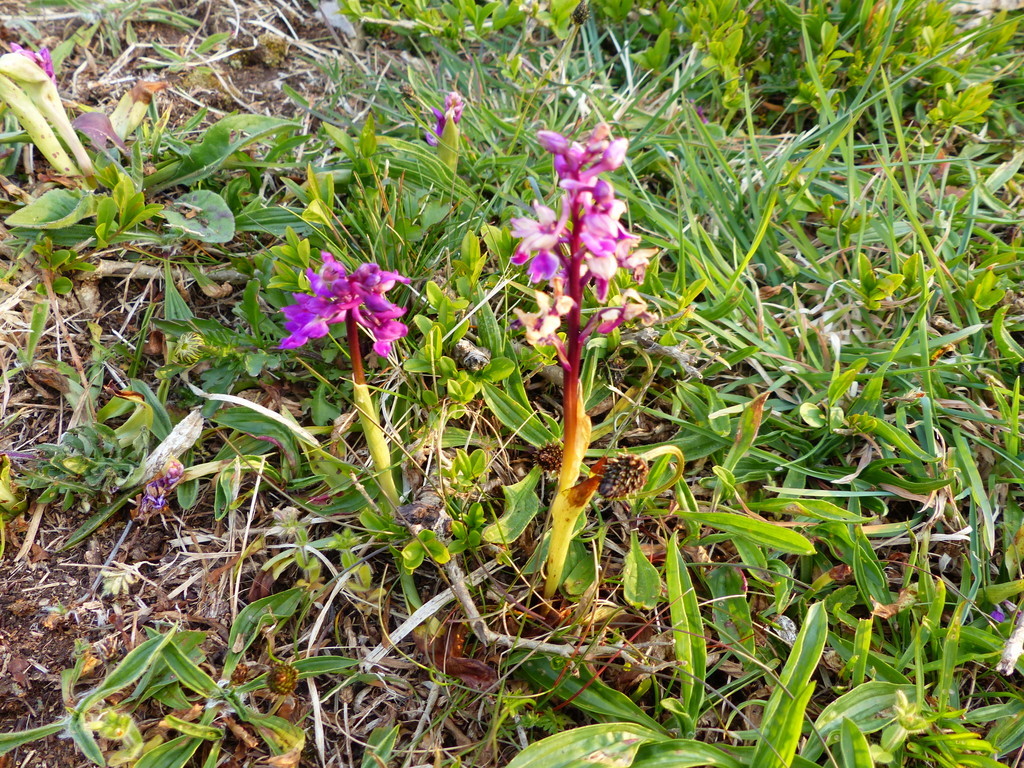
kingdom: Plantae
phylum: Tracheophyta
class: Liliopsida
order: Asparagales
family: Orchidaceae
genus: Orchis
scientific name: Orchis mascula
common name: Early-purple orchid
